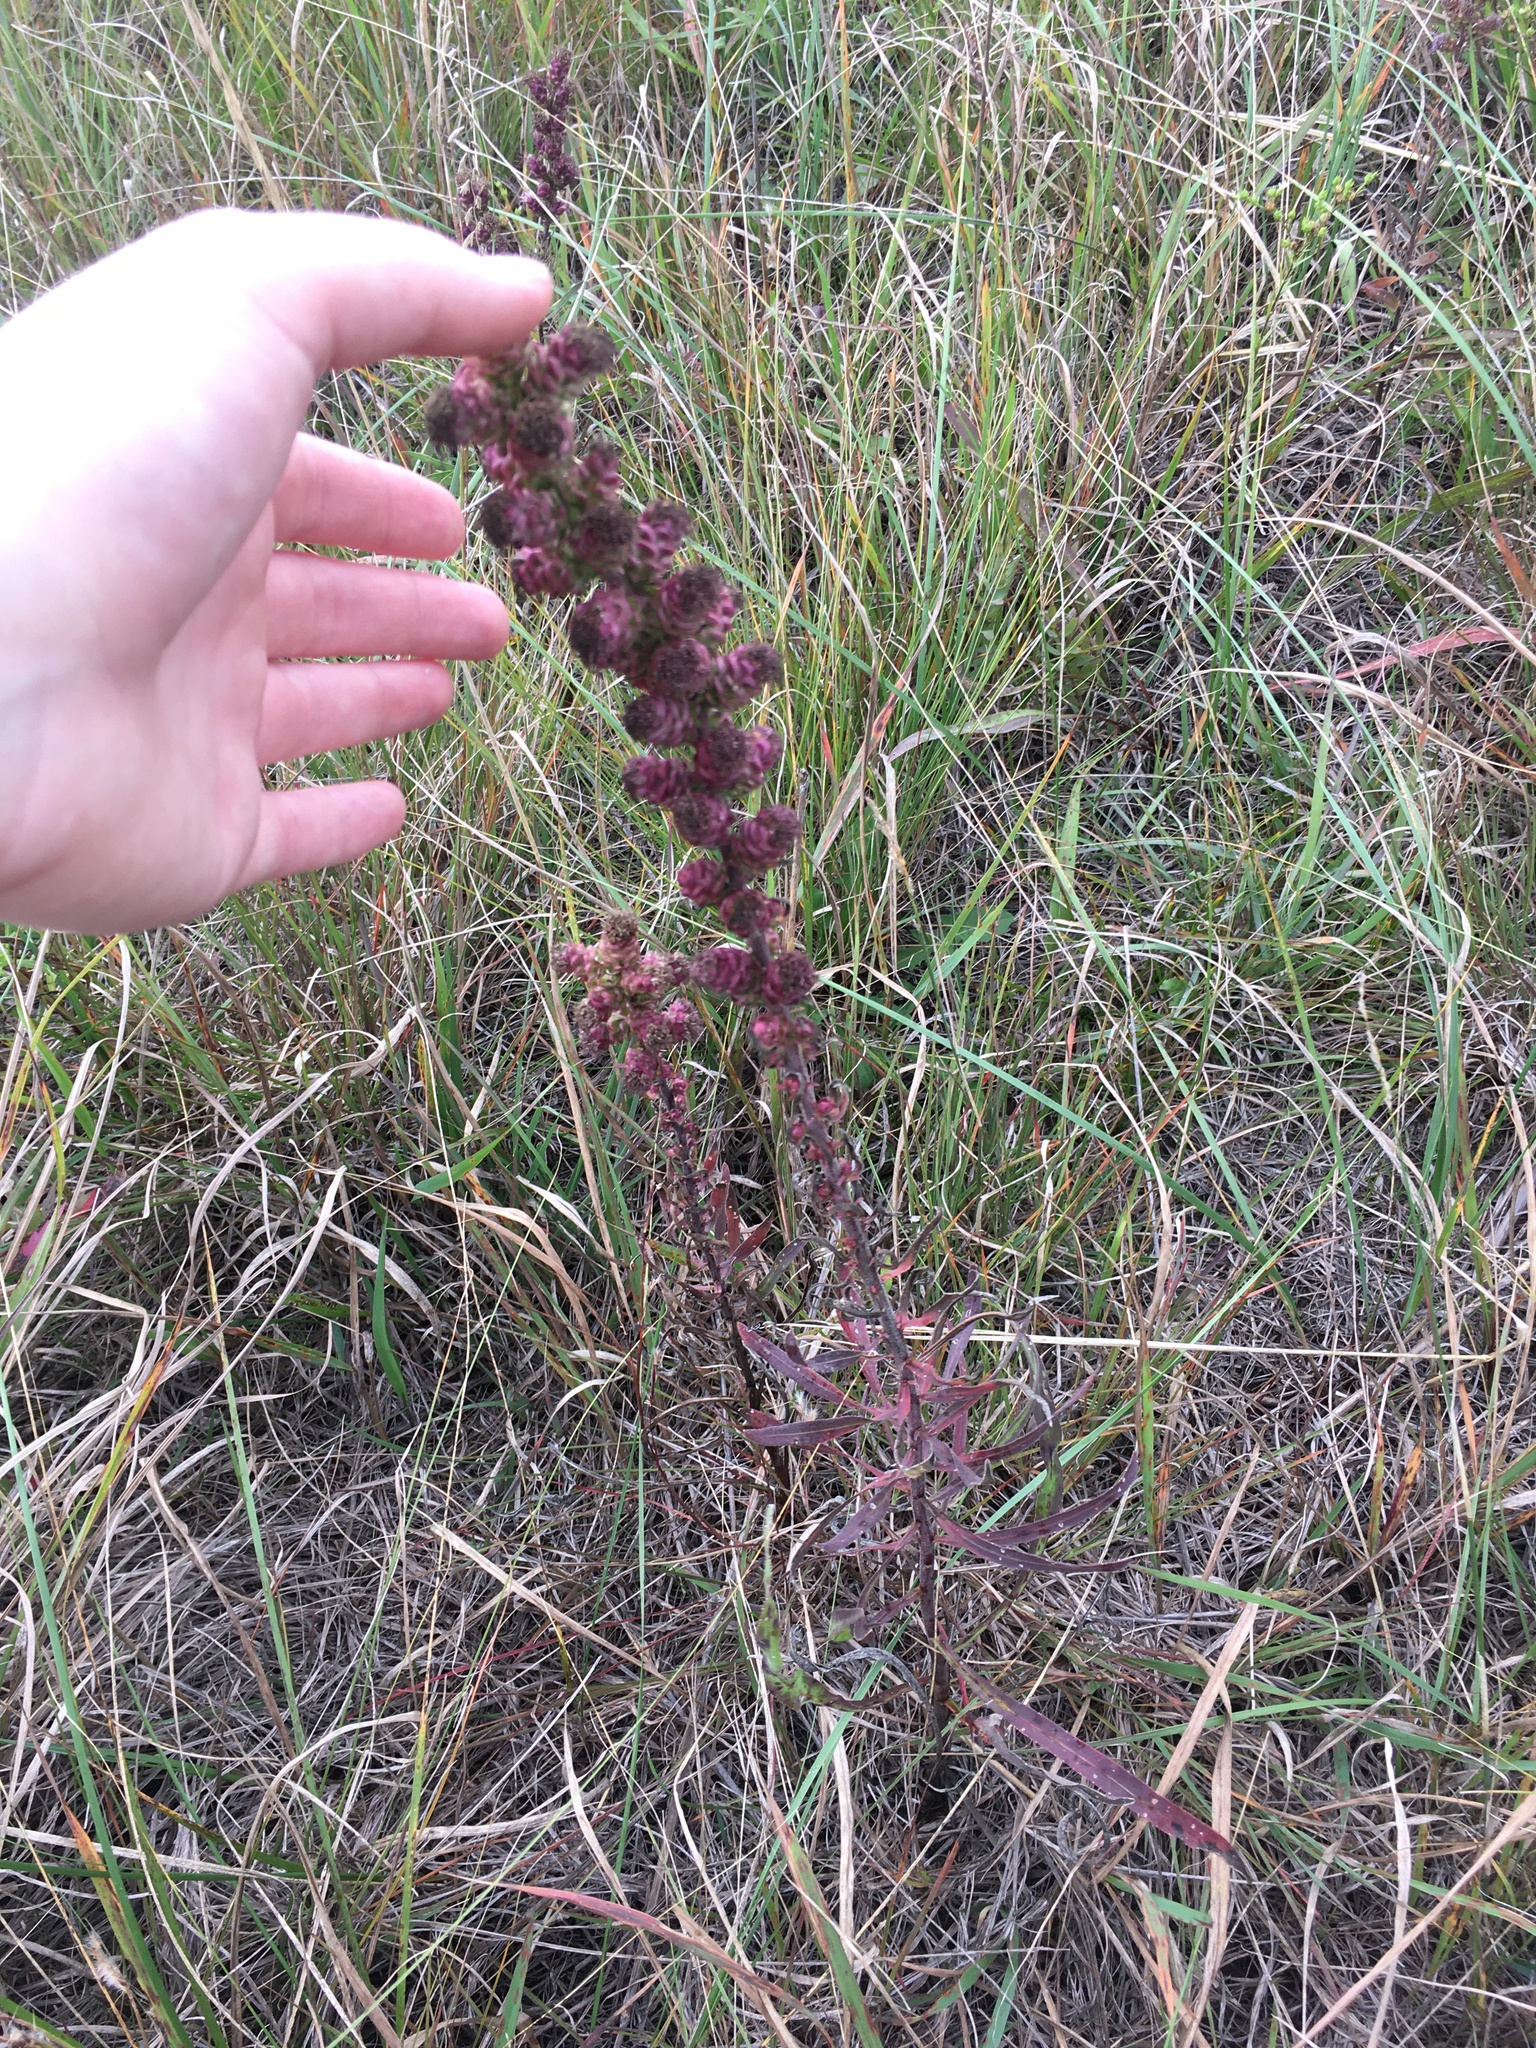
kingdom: Plantae
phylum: Tracheophyta
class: Magnoliopsida
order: Asterales
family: Asteraceae
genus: Liatris
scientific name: Liatris aspera
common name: Lacerate blazing-star
